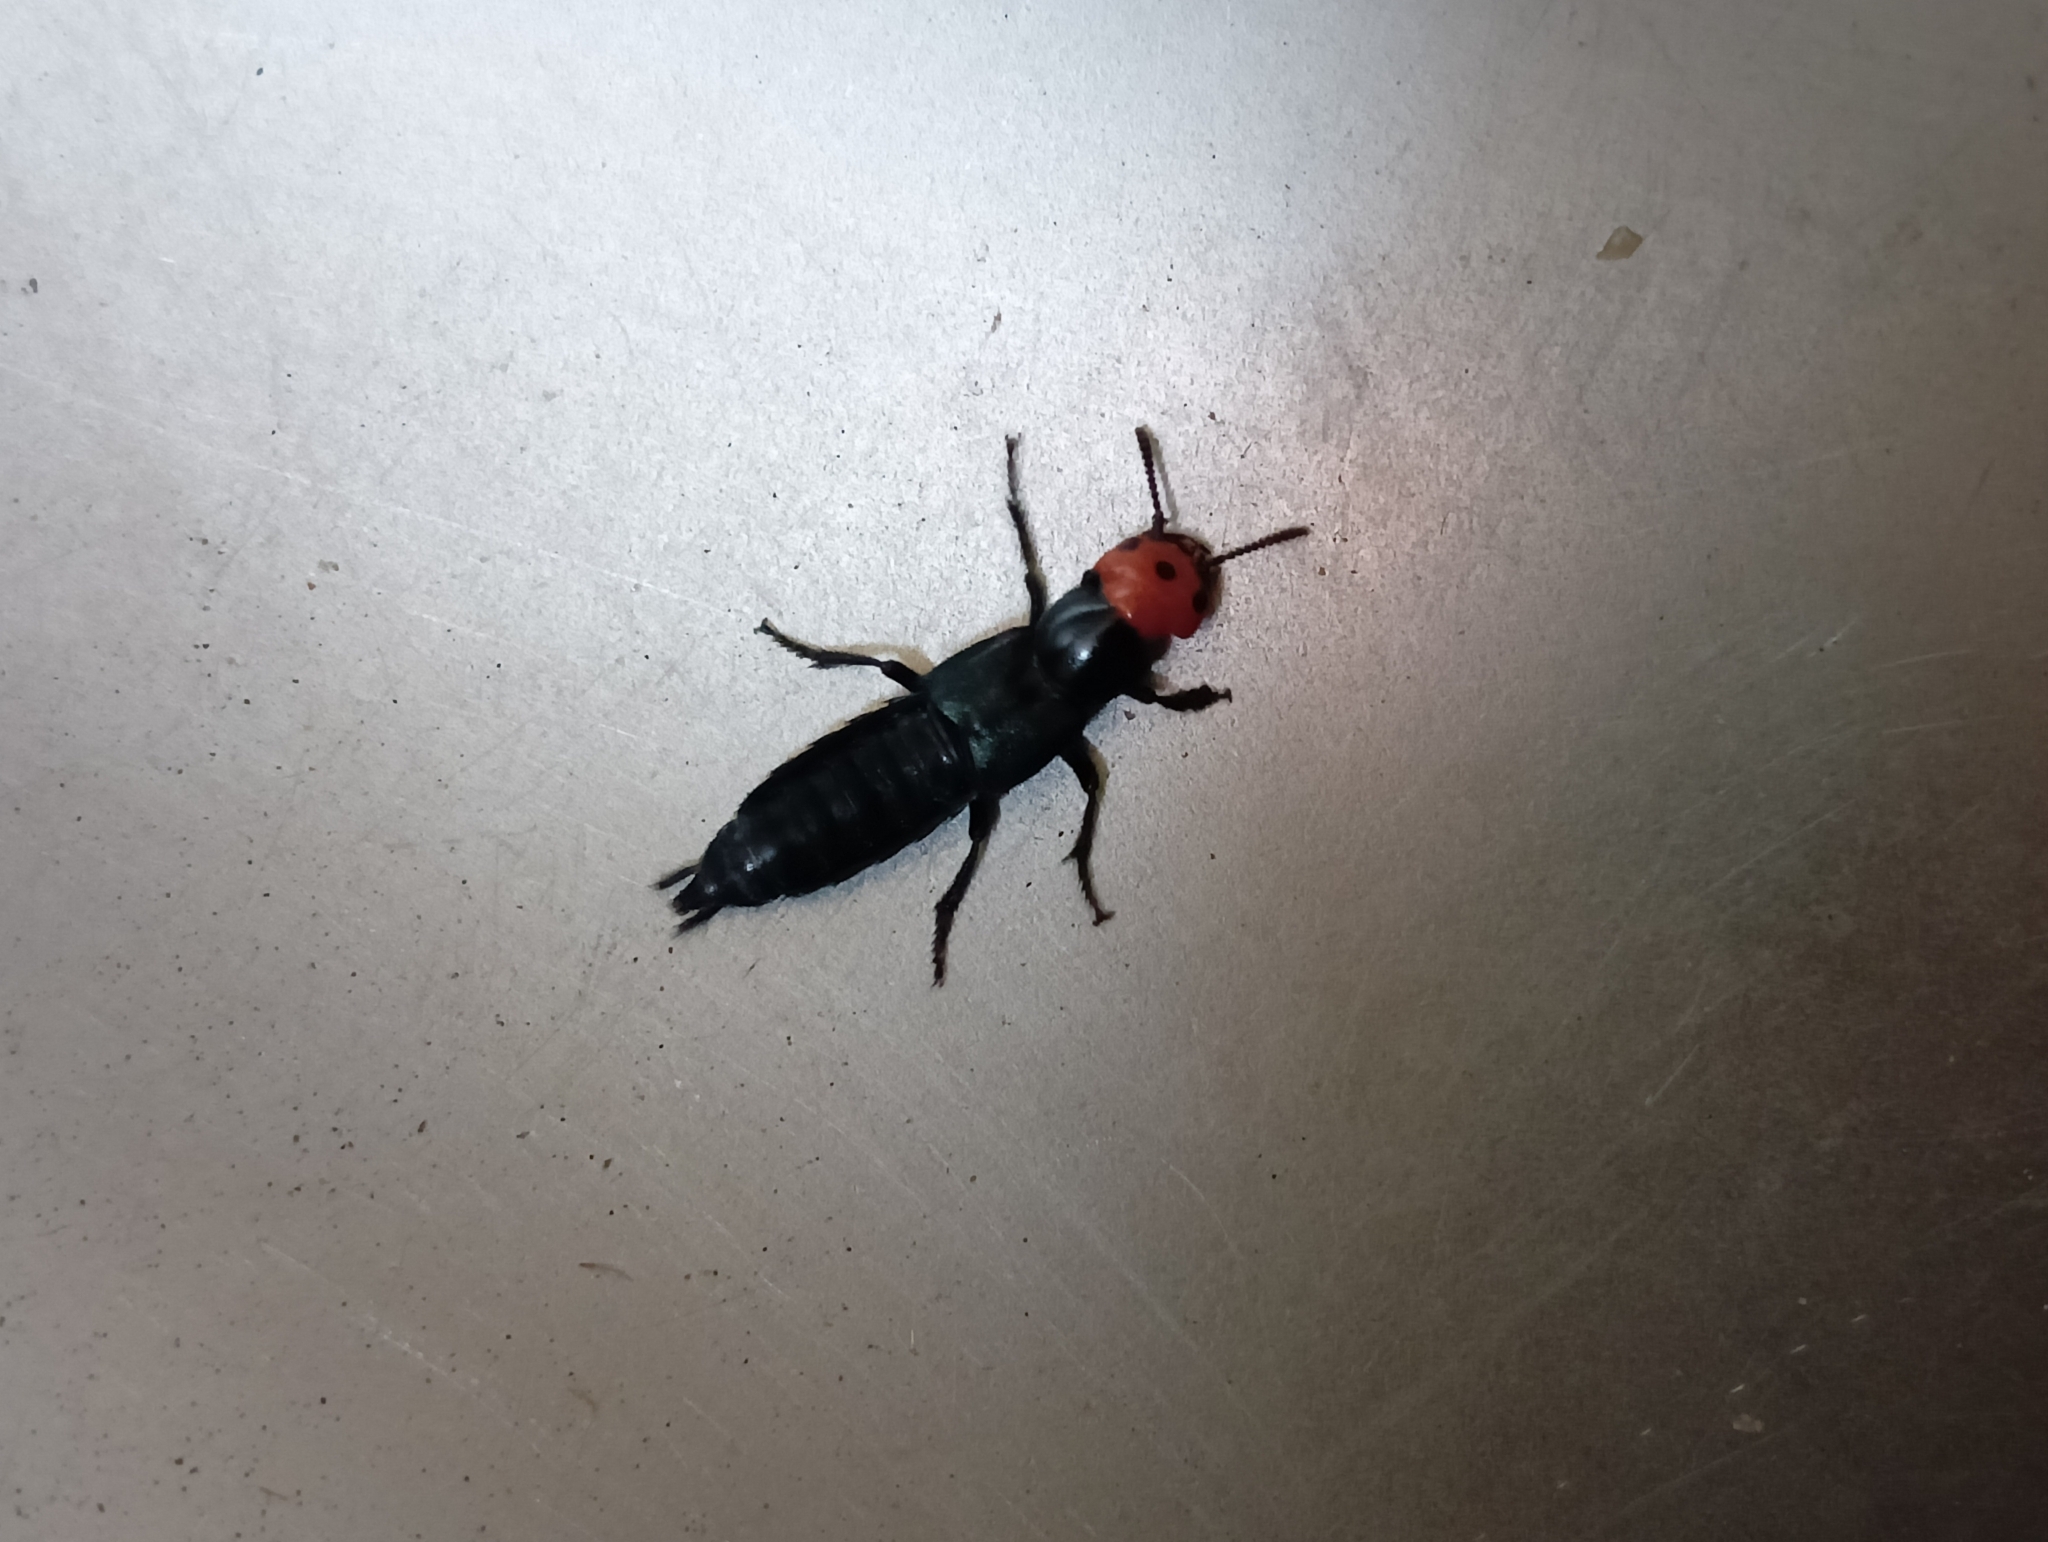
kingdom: Animalia
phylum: Arthropoda
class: Insecta
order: Coleoptera
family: Staphylinidae
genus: Creophilus
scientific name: Creophilus erythrocephalus
